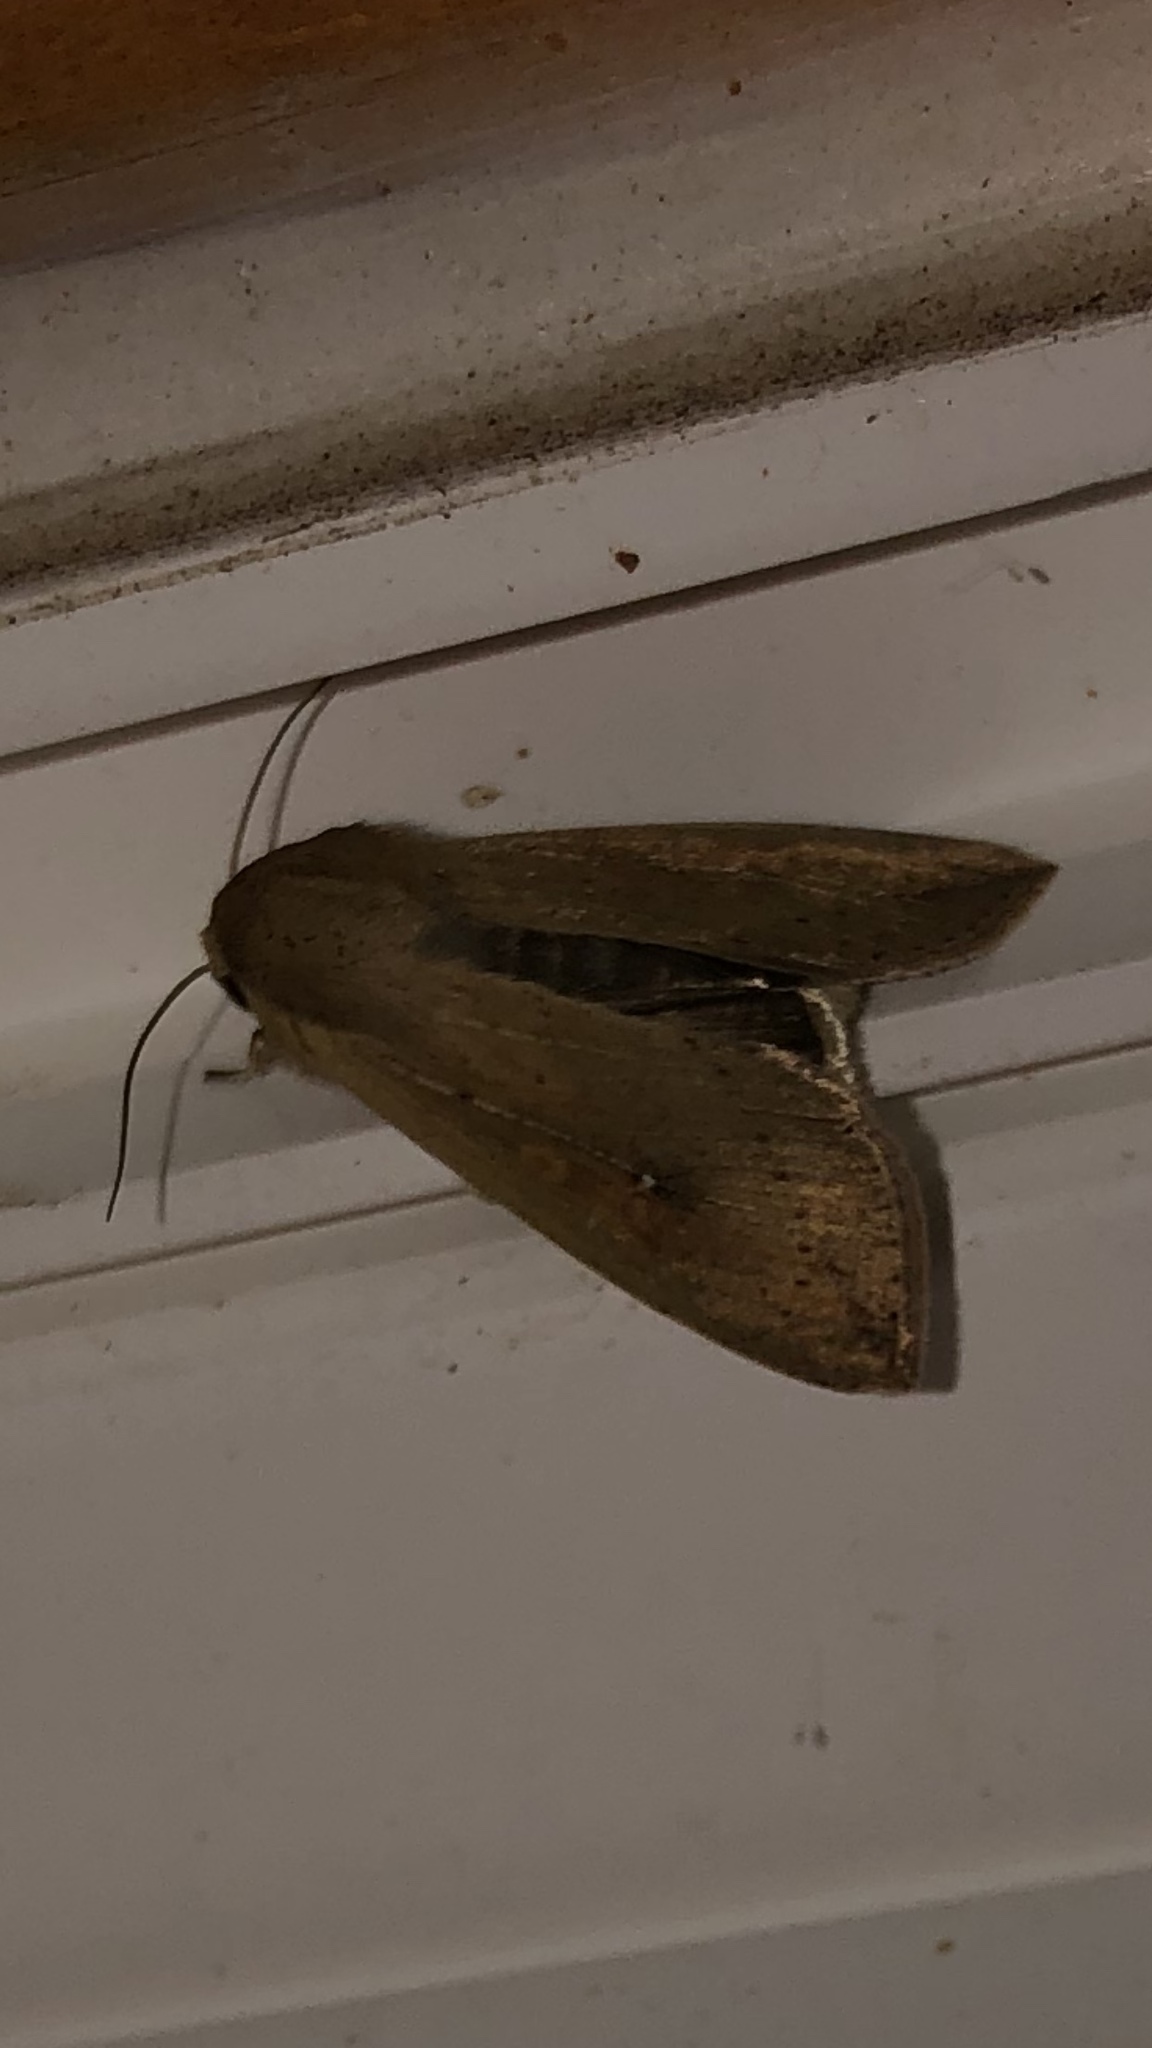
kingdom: Animalia
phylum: Arthropoda
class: Insecta
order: Lepidoptera
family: Noctuidae
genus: Mythimna
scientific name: Mythimna unipuncta
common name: White-speck
